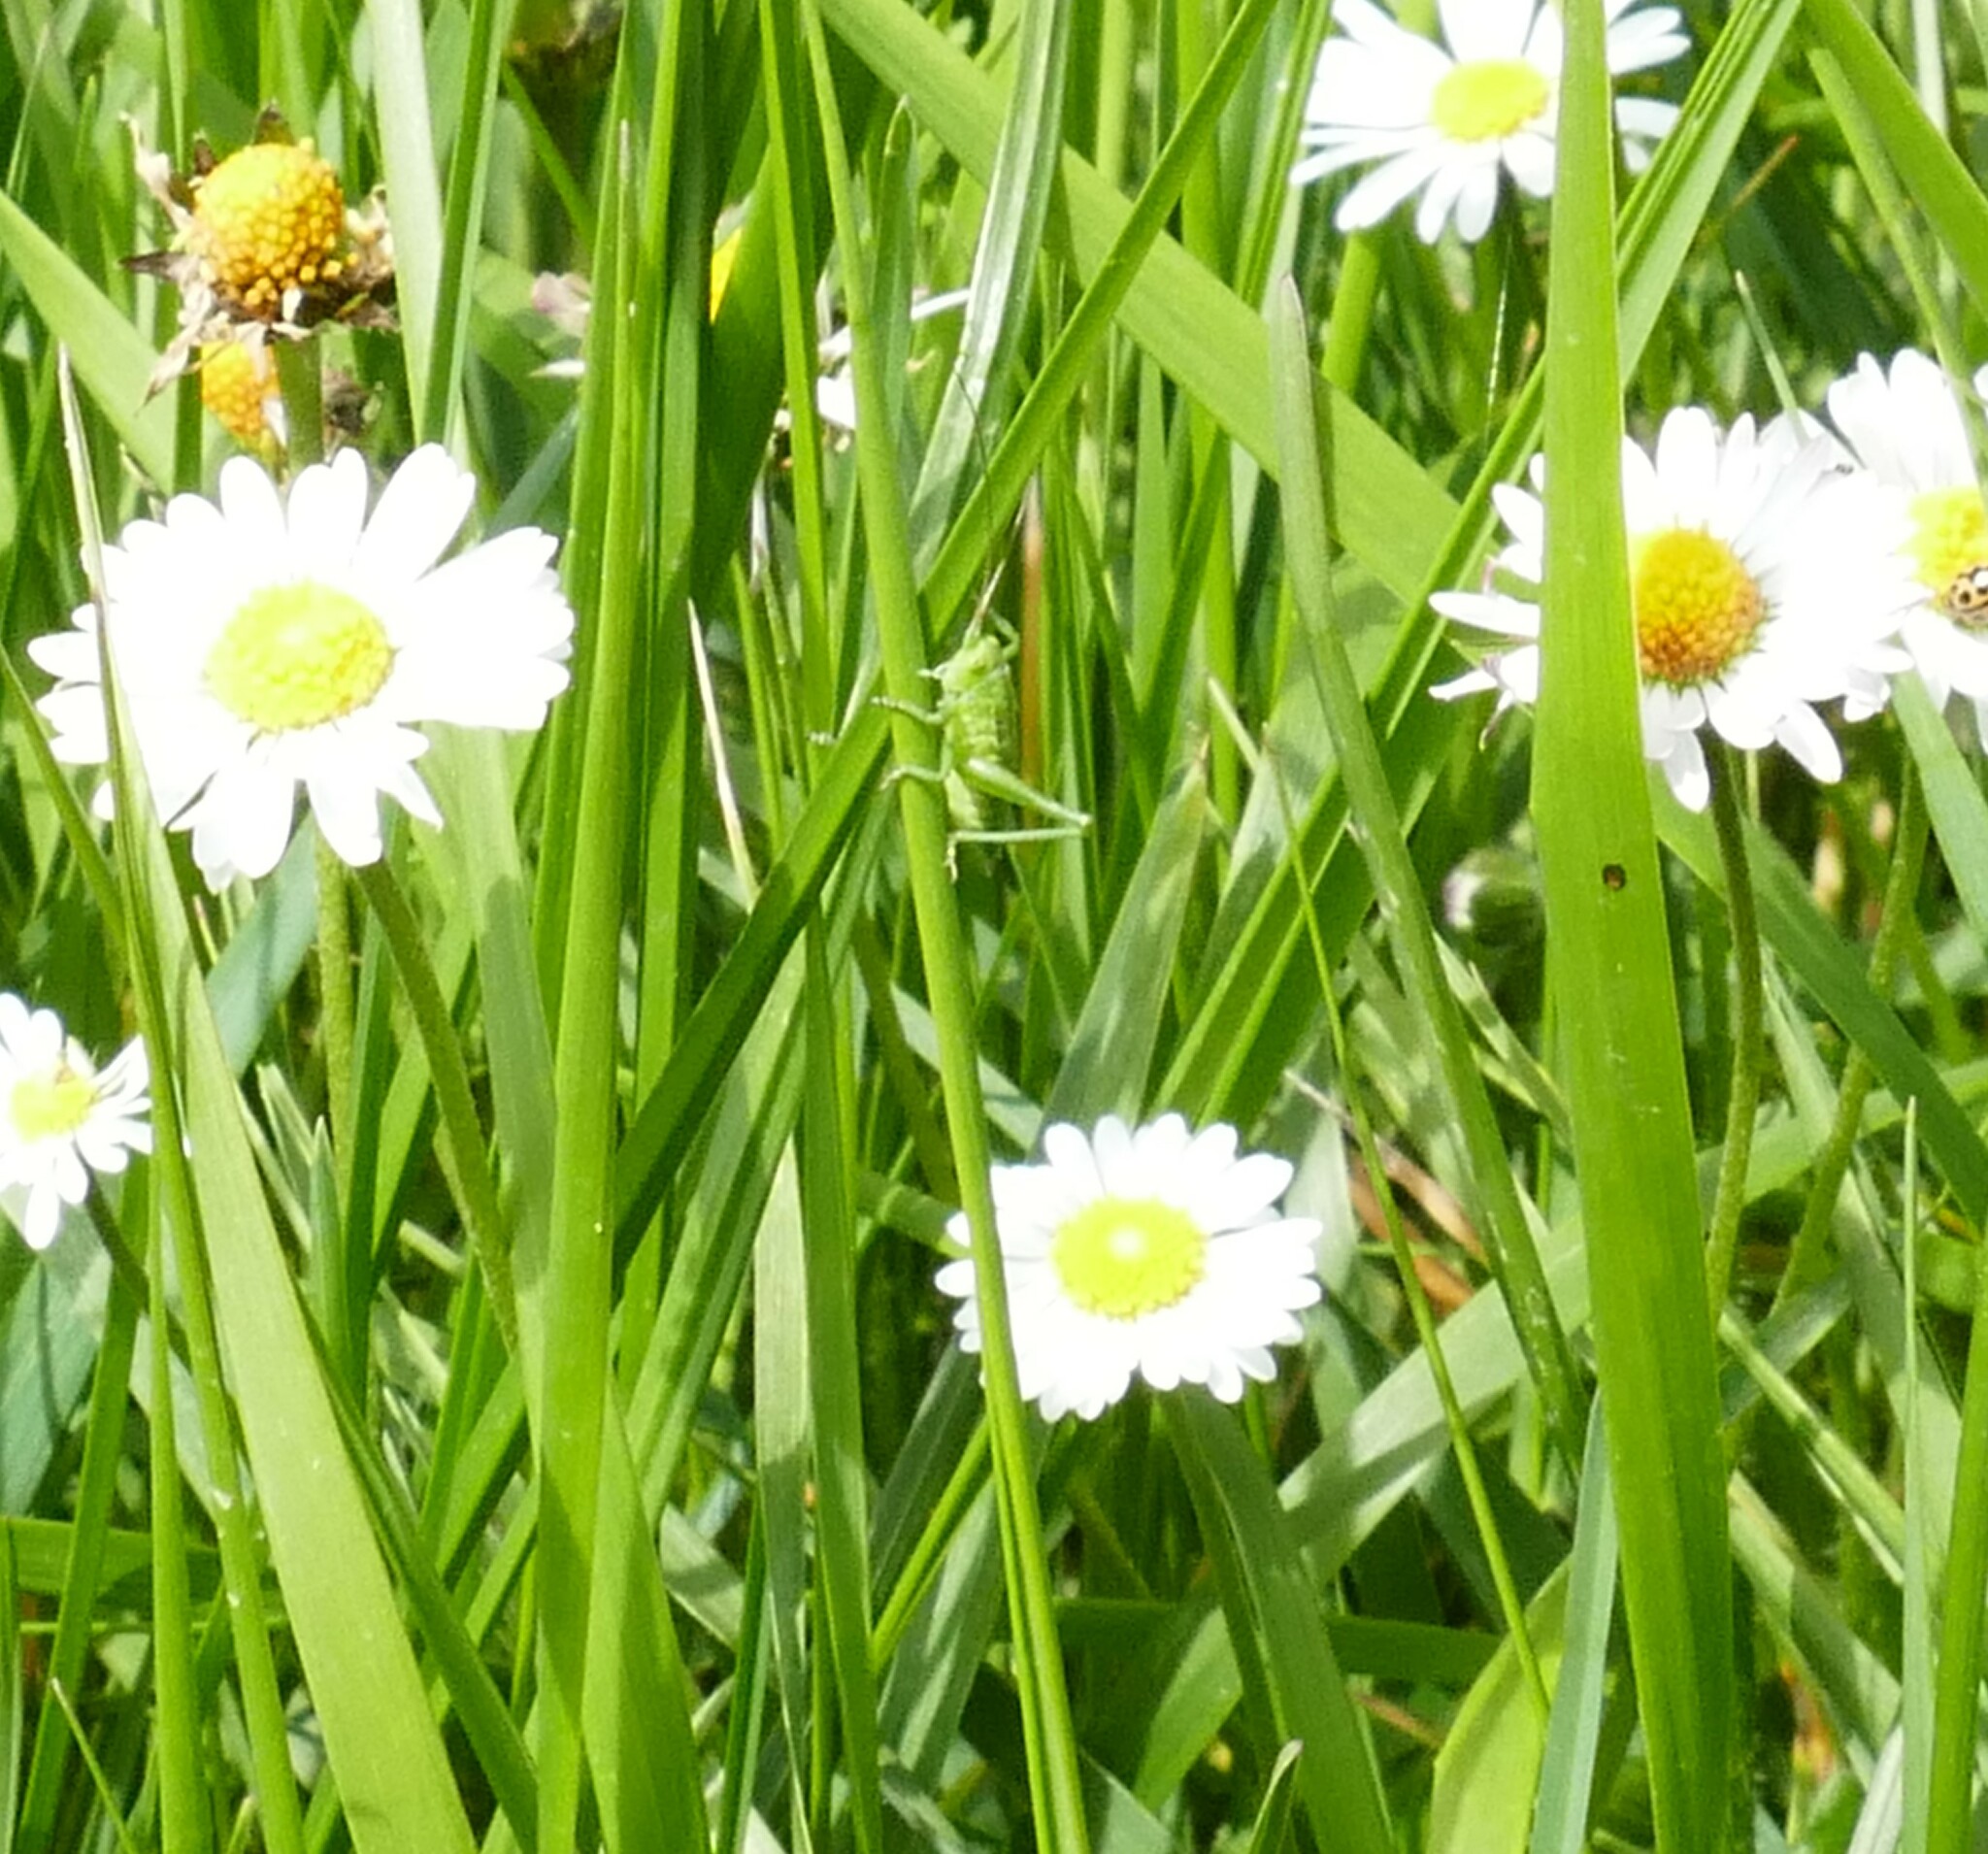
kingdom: Animalia
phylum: Arthropoda
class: Insecta
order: Orthoptera
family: Tettigoniidae
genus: Tettigonia
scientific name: Tettigonia viridissima
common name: Great green bush-cricket
